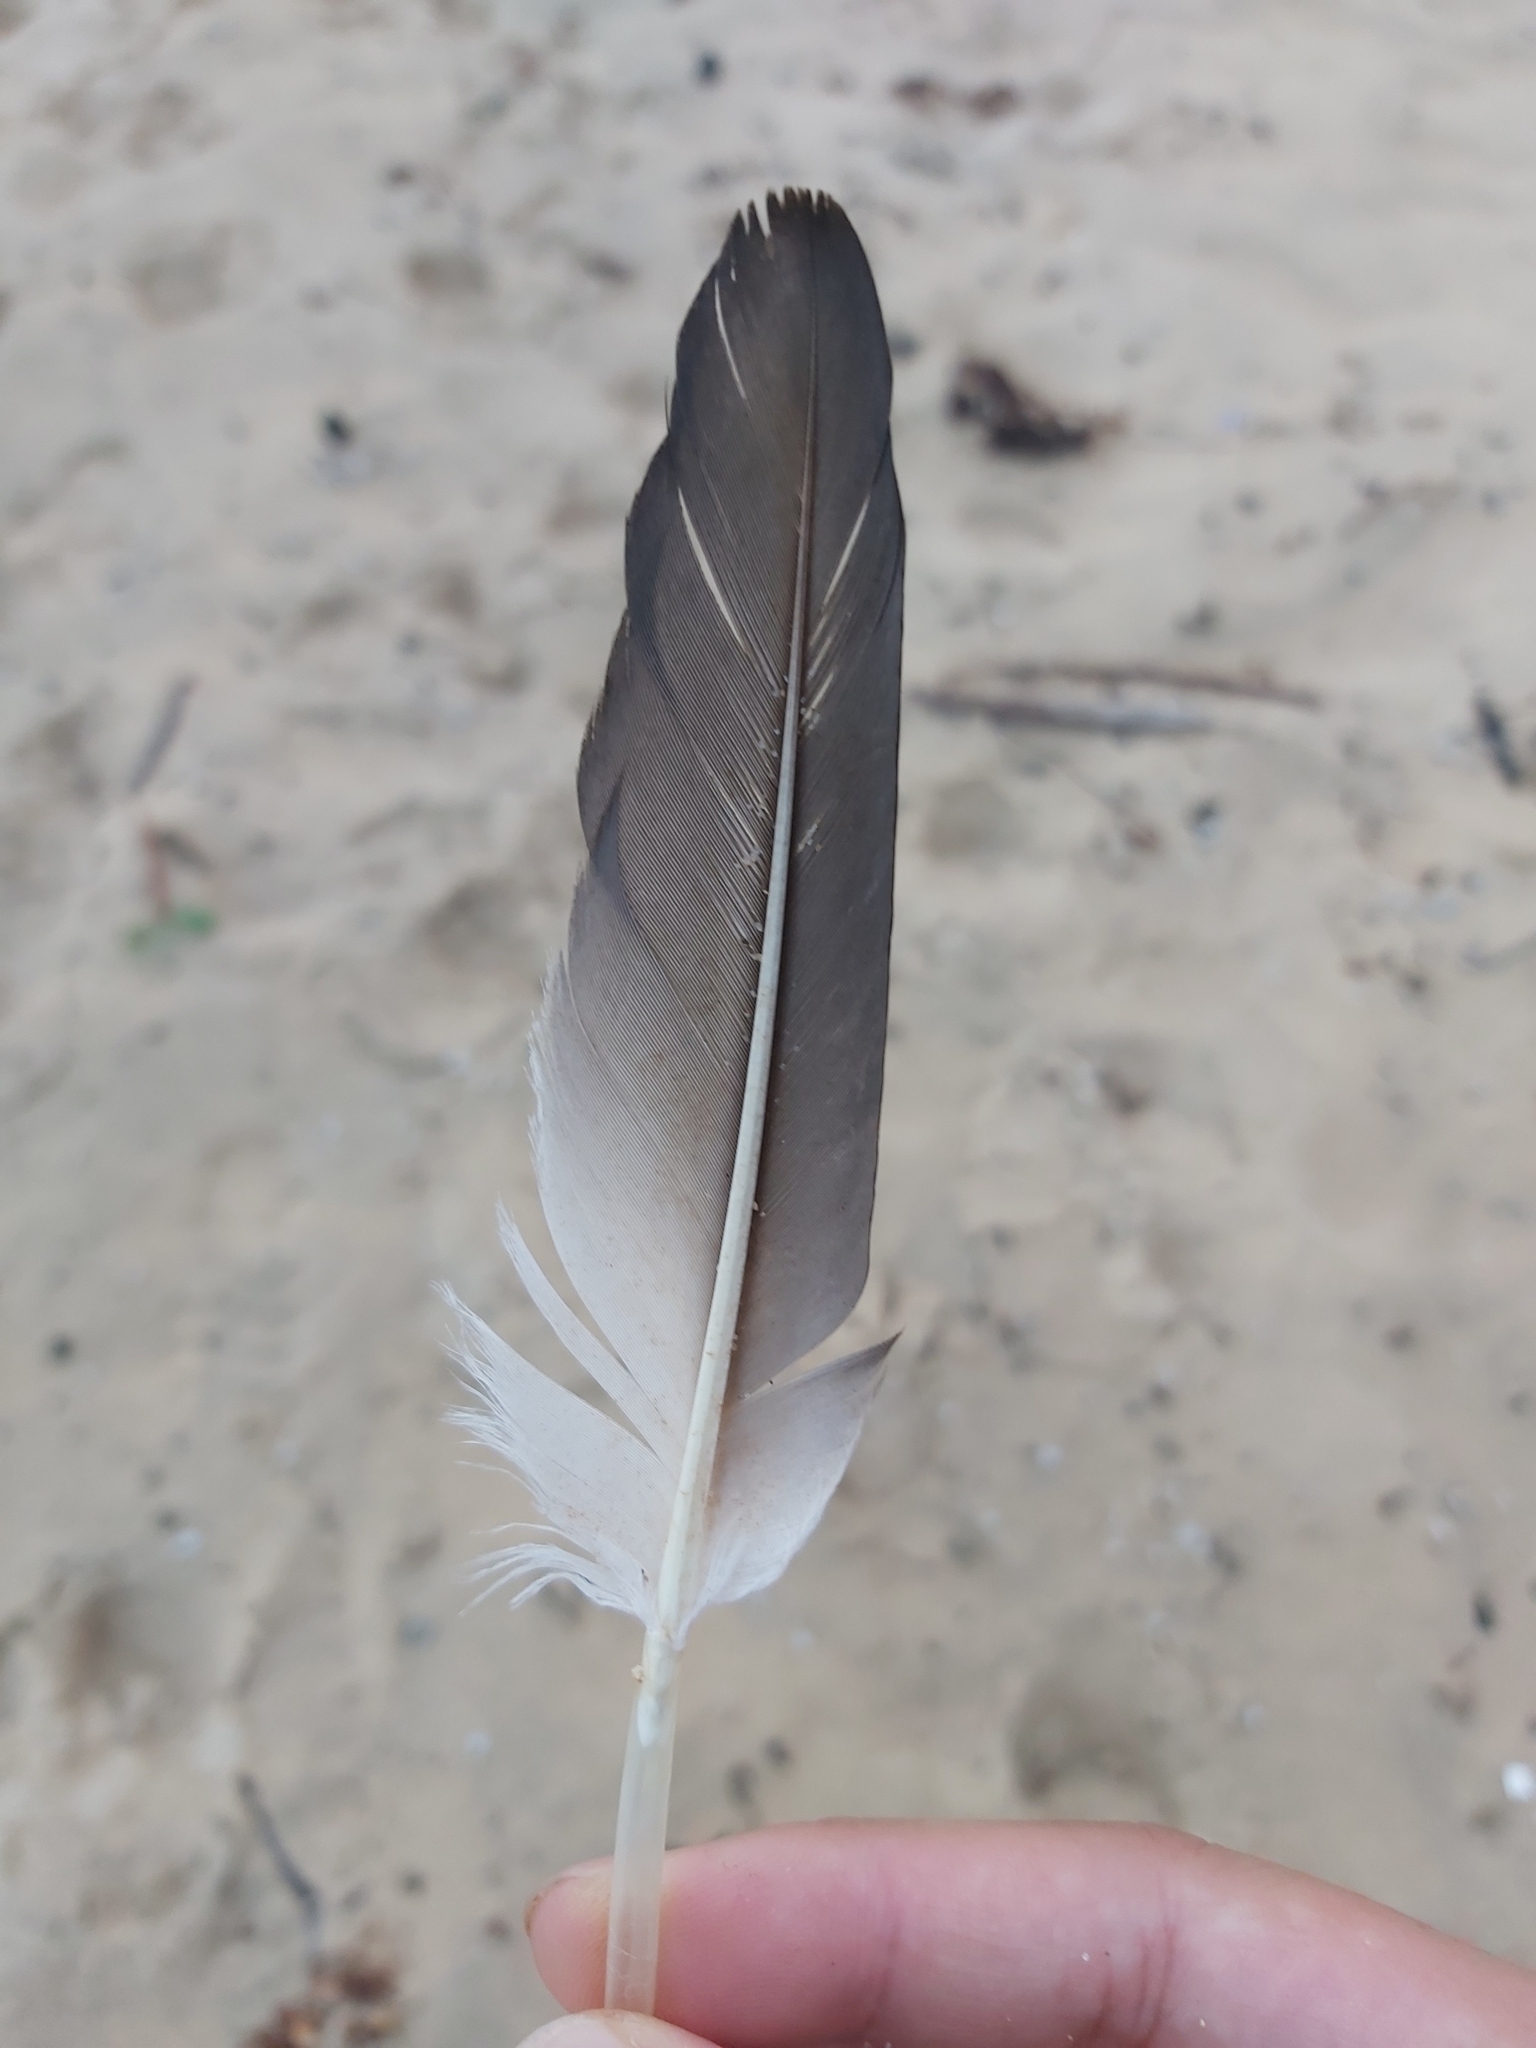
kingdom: Animalia
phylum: Chordata
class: Aves
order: Suliformes
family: Sulidae
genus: Morus
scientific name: Morus serrator
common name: Australasian gannet
